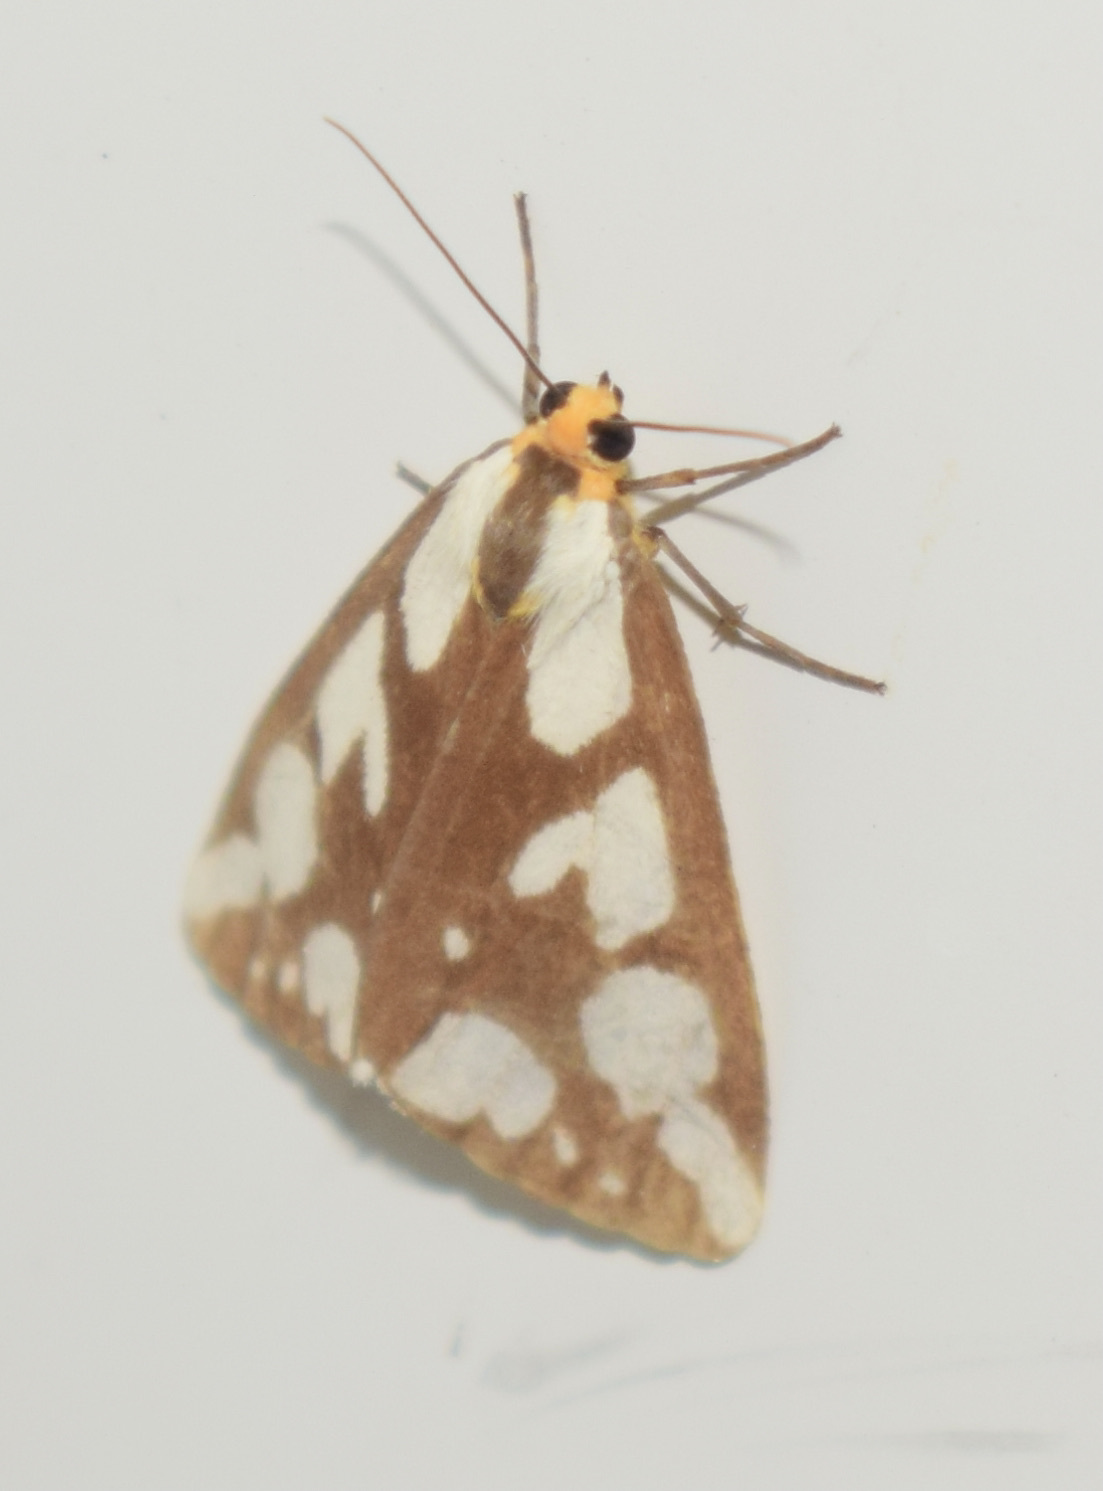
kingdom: Animalia
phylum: Arthropoda
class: Insecta
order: Lepidoptera
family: Erebidae
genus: Haploa
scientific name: Haploa confusa
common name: Confused haploa moth
